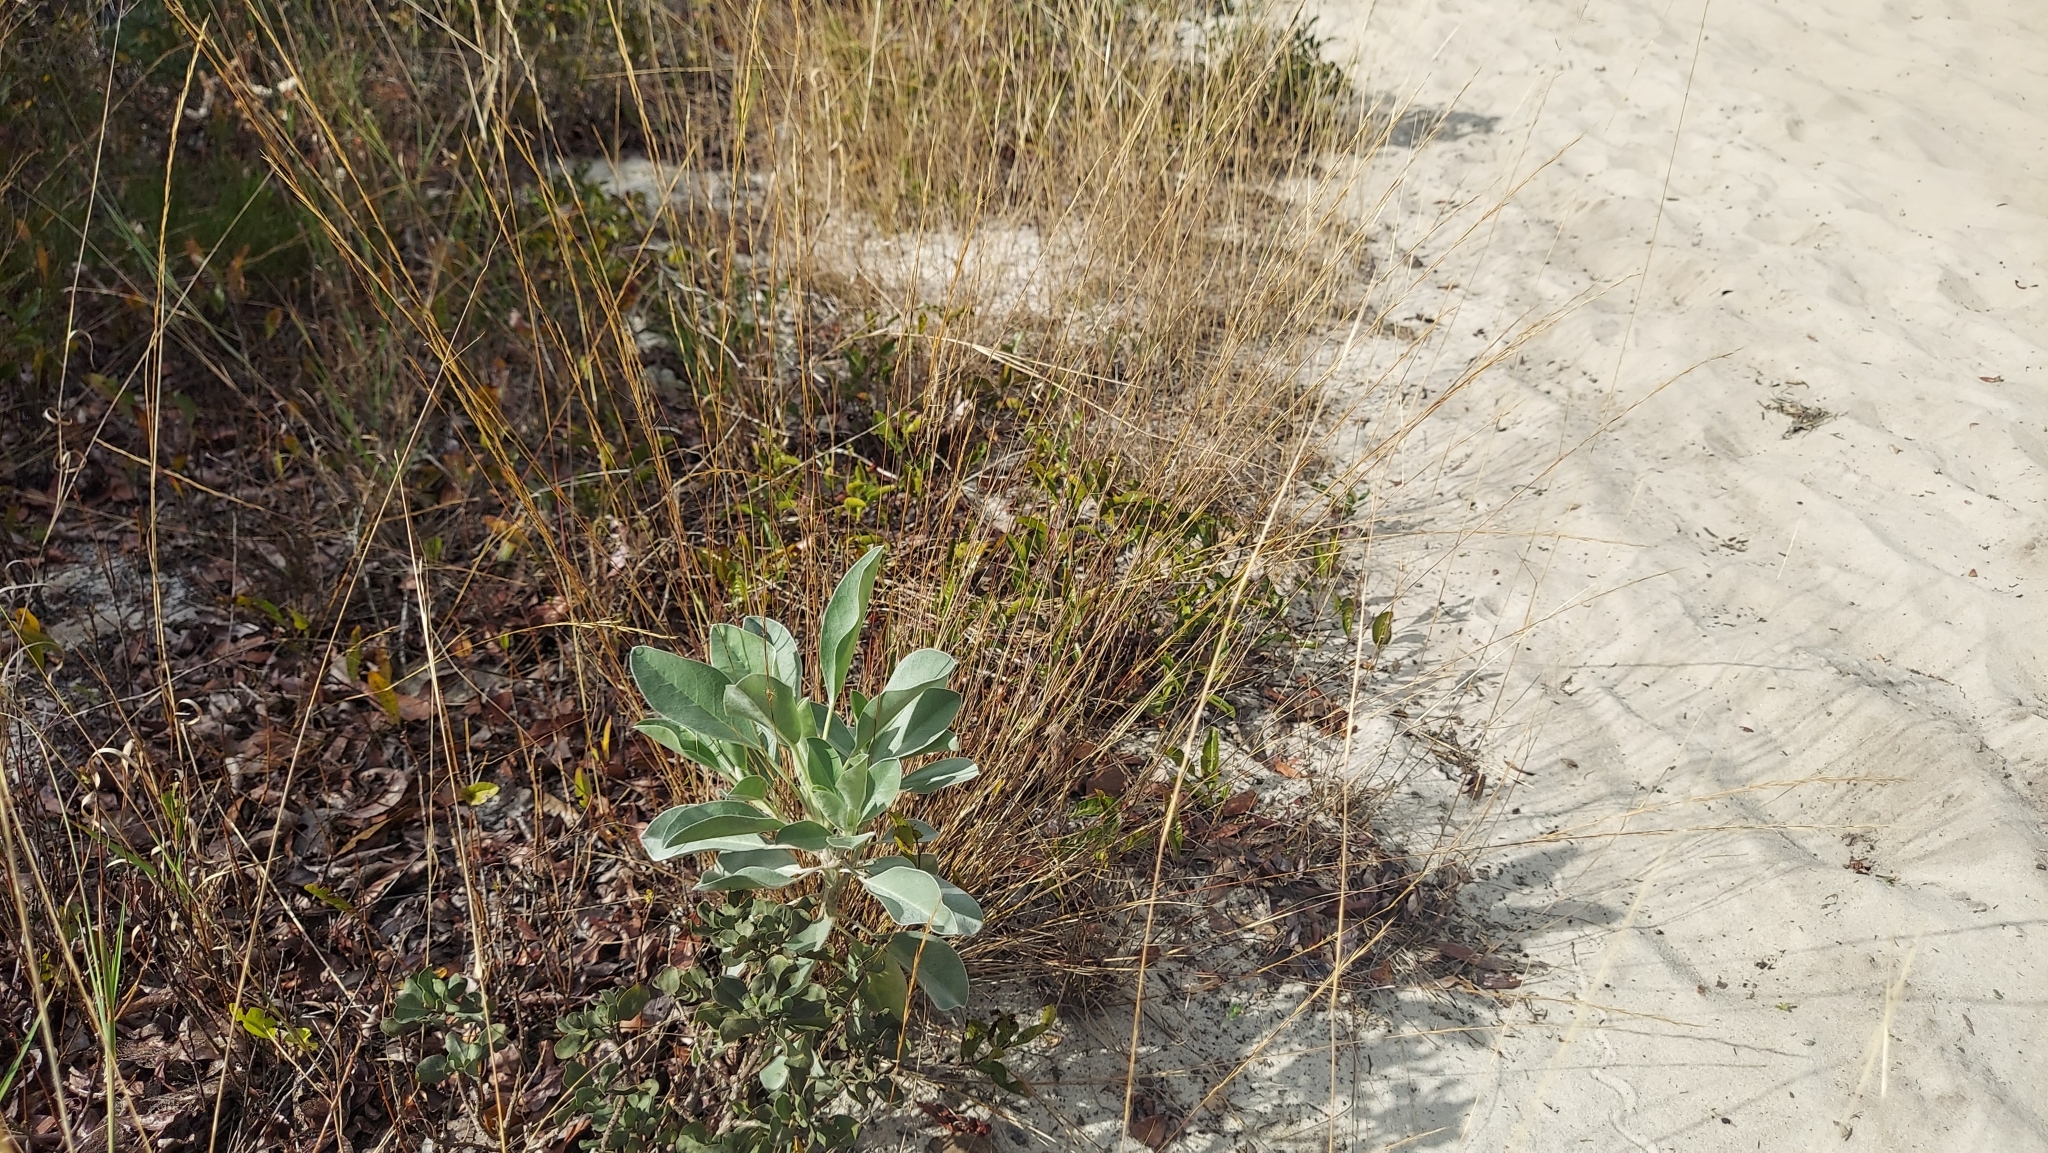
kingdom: Plantae
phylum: Tracheophyta
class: Magnoliopsida
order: Fabales
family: Fabaceae
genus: Lupinus
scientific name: Lupinus cumulicola
